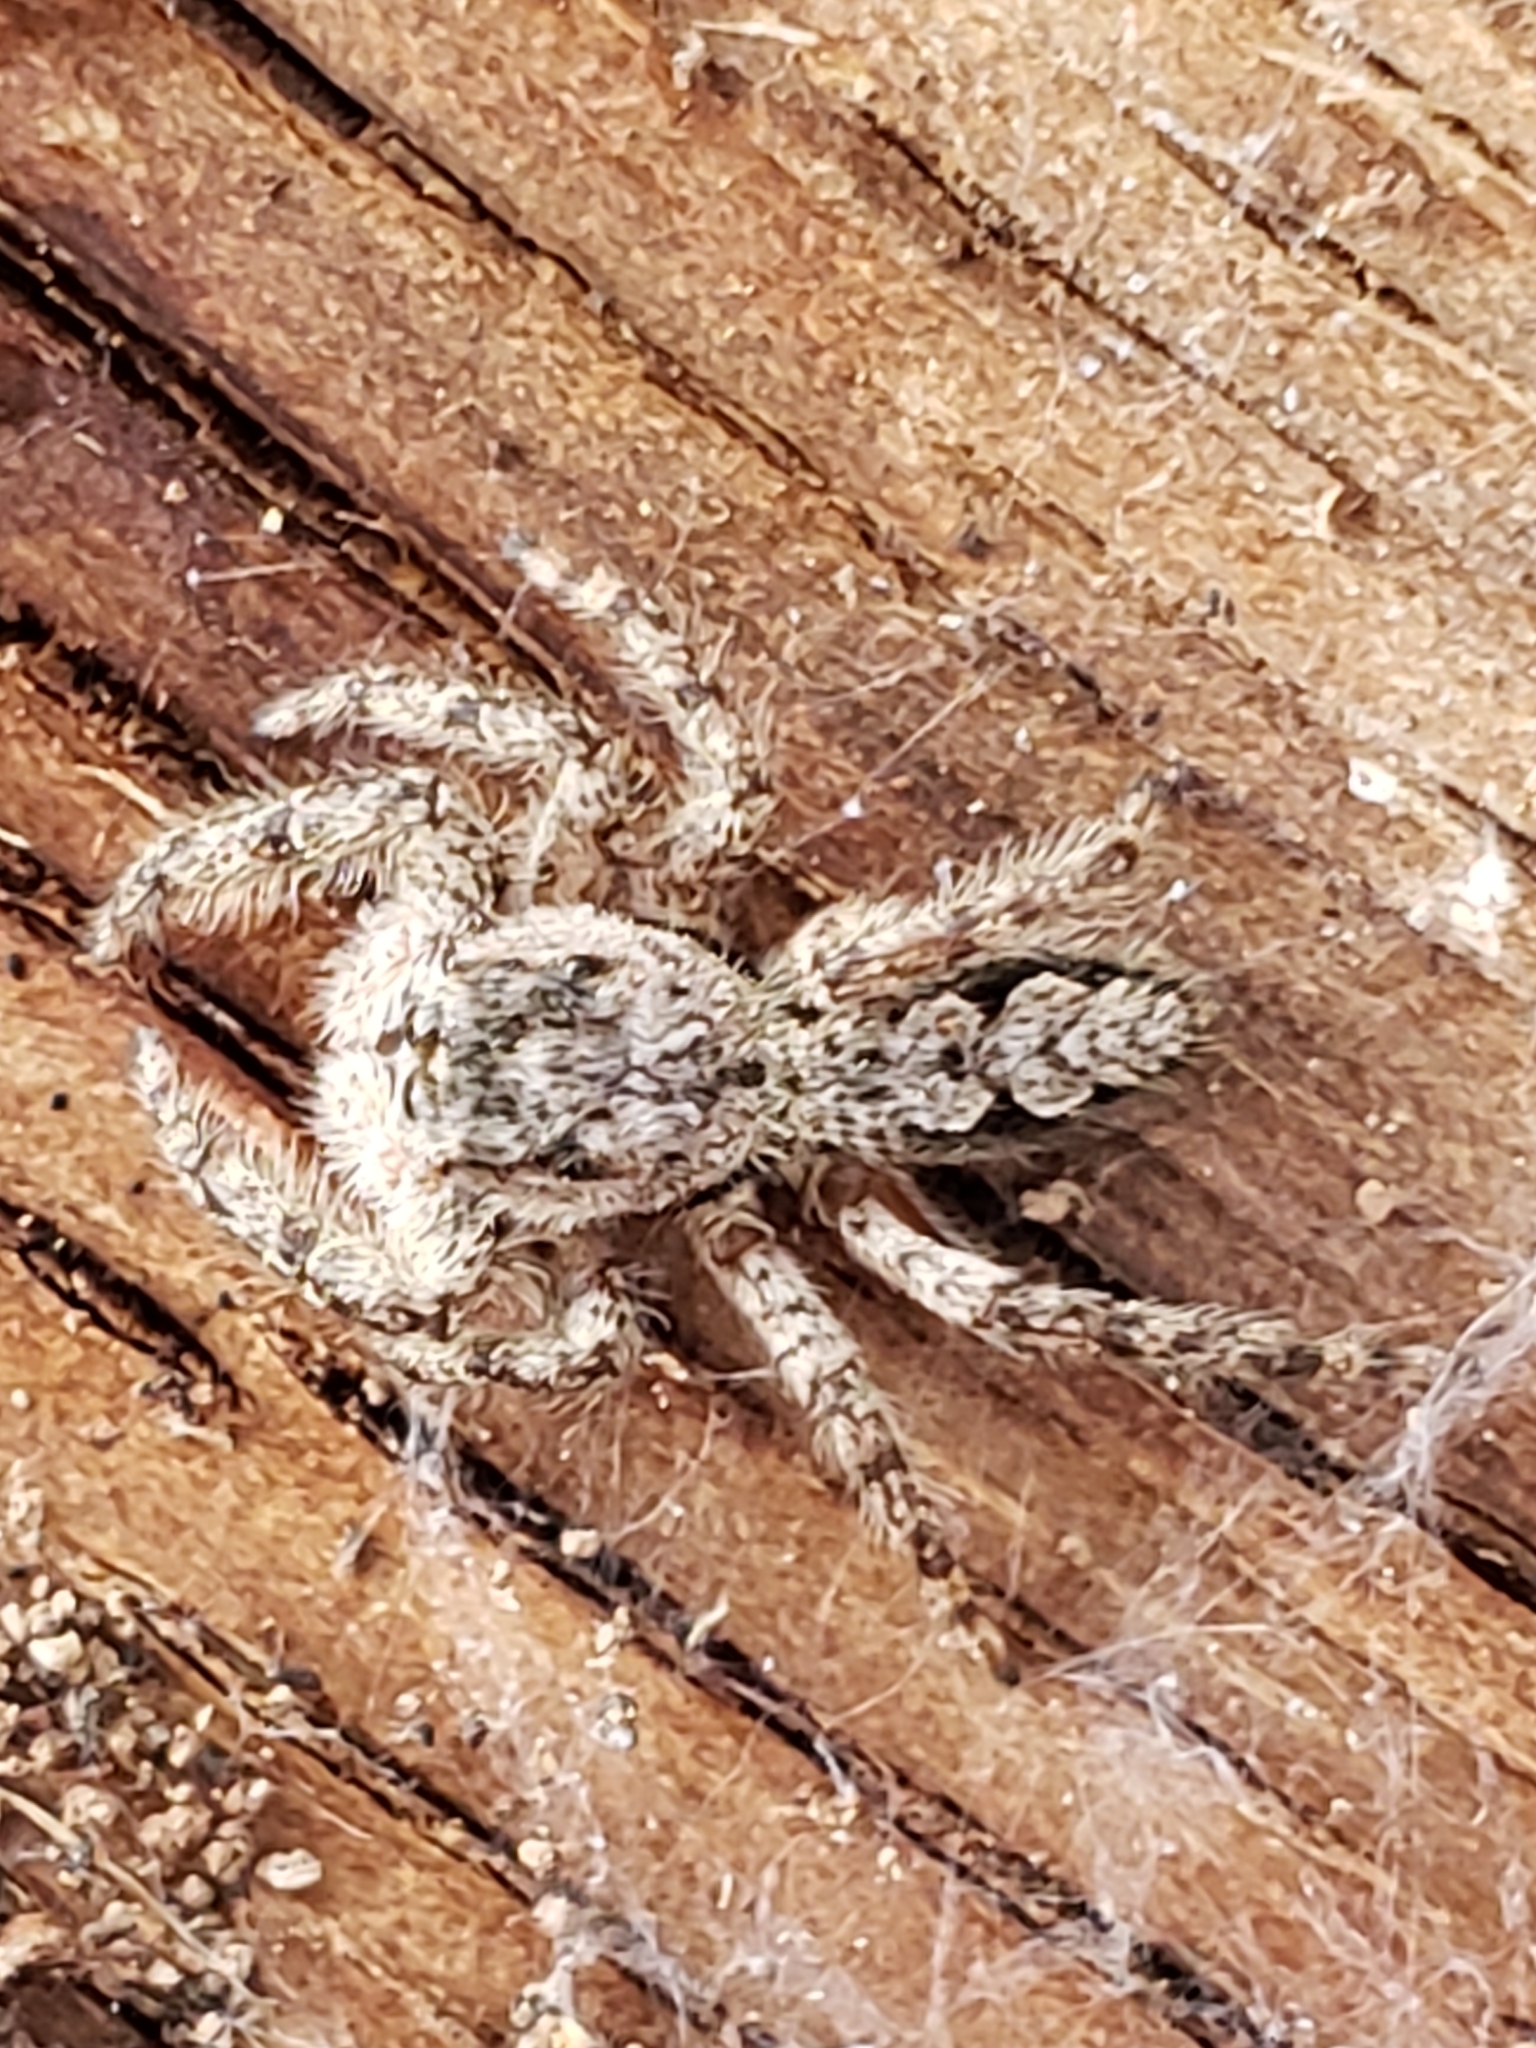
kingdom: Animalia
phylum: Arthropoda
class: Arachnida
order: Araneae
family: Salticidae
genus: Platycryptus
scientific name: Platycryptus undatus
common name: Tan jumping spider
